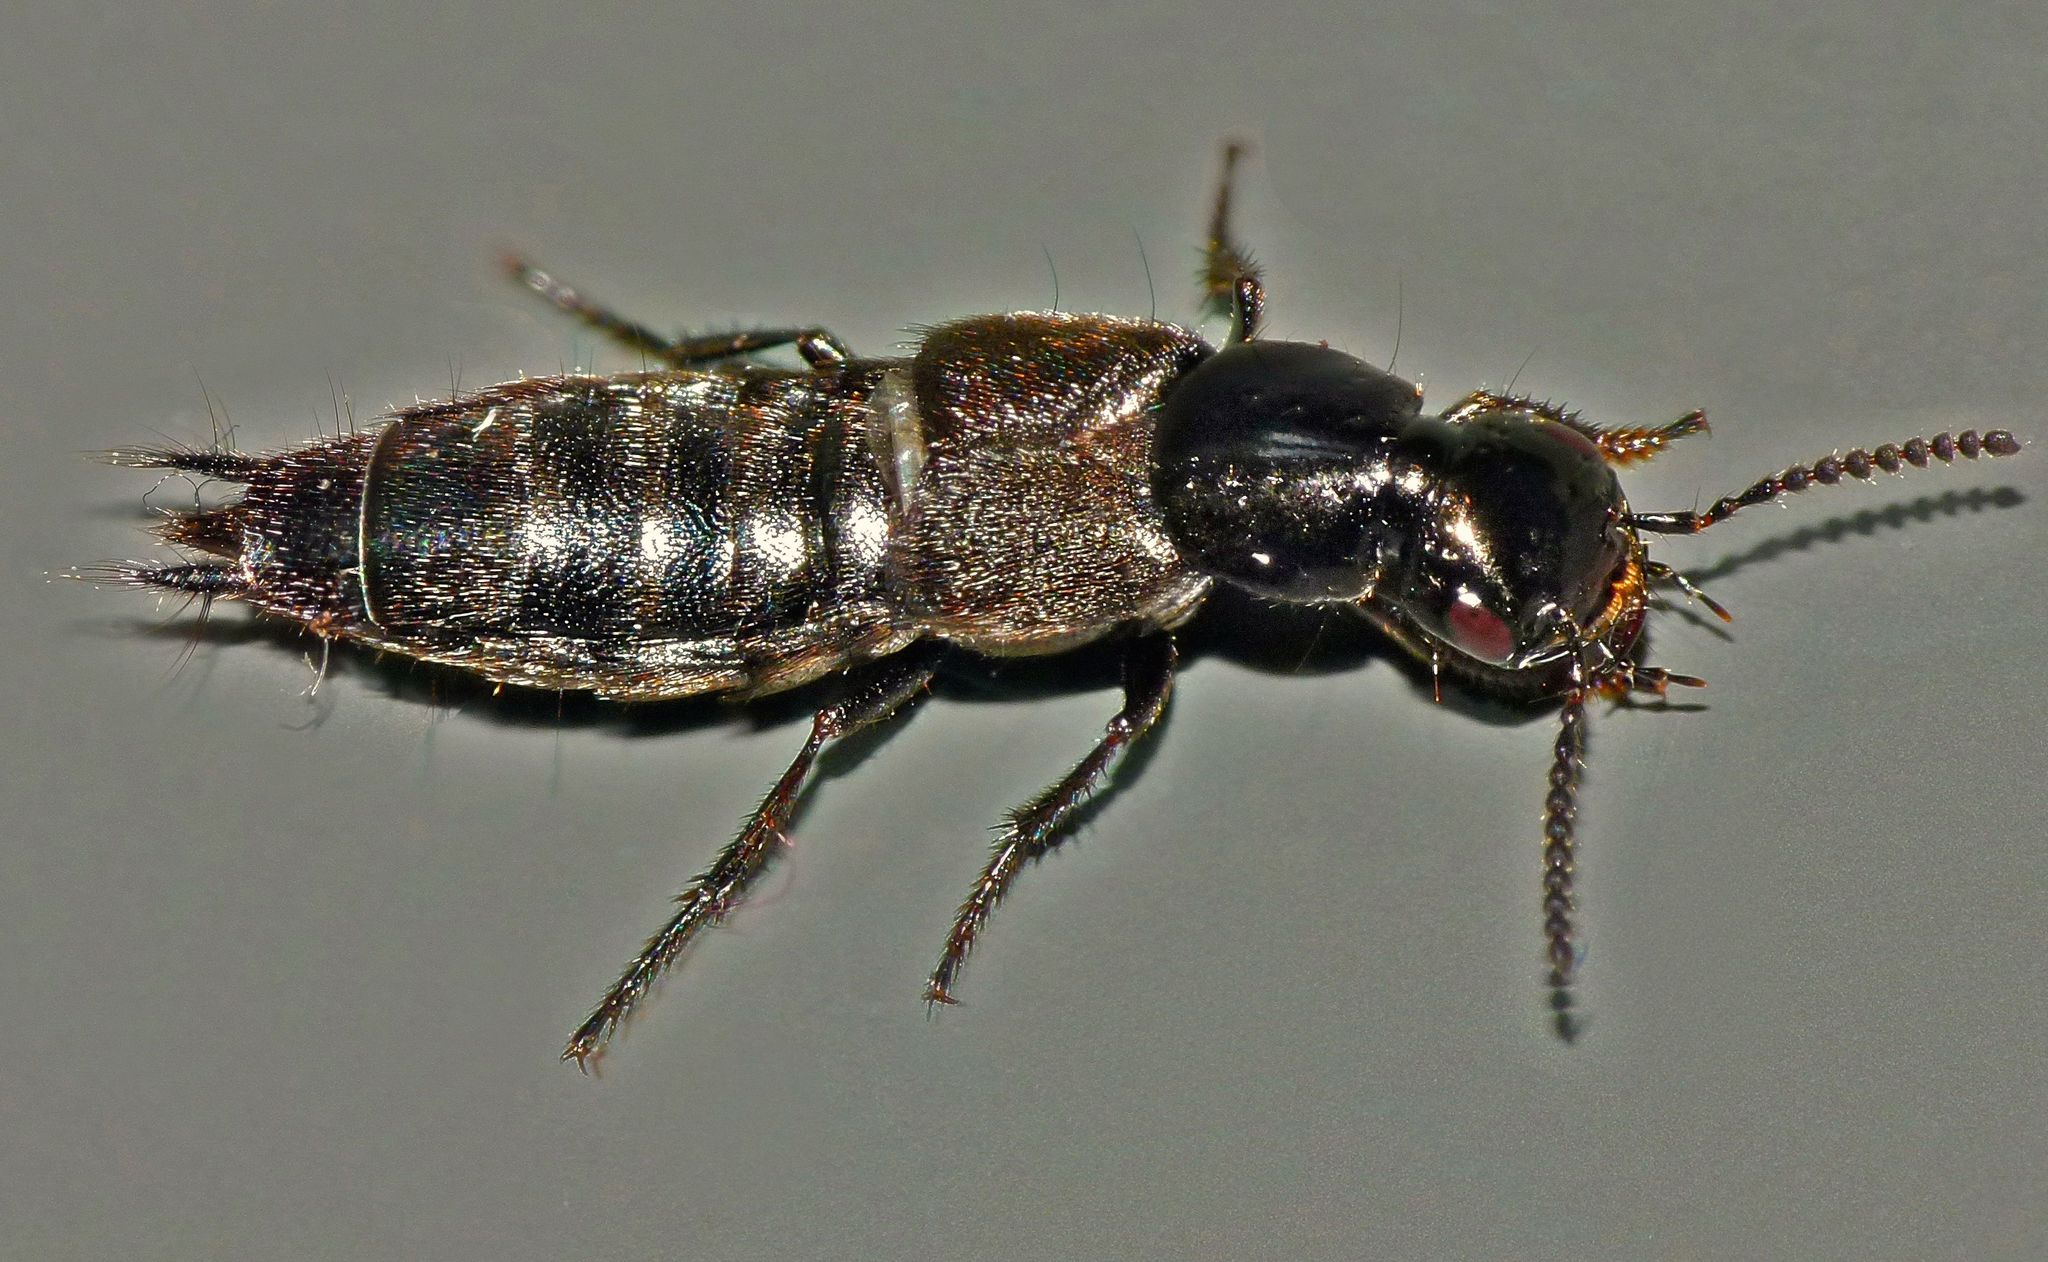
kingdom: Animalia
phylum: Arthropoda
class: Insecta
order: Coleoptera
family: Staphylinidae
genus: Philonthus
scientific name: Philonthus politus
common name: Rove beetle
